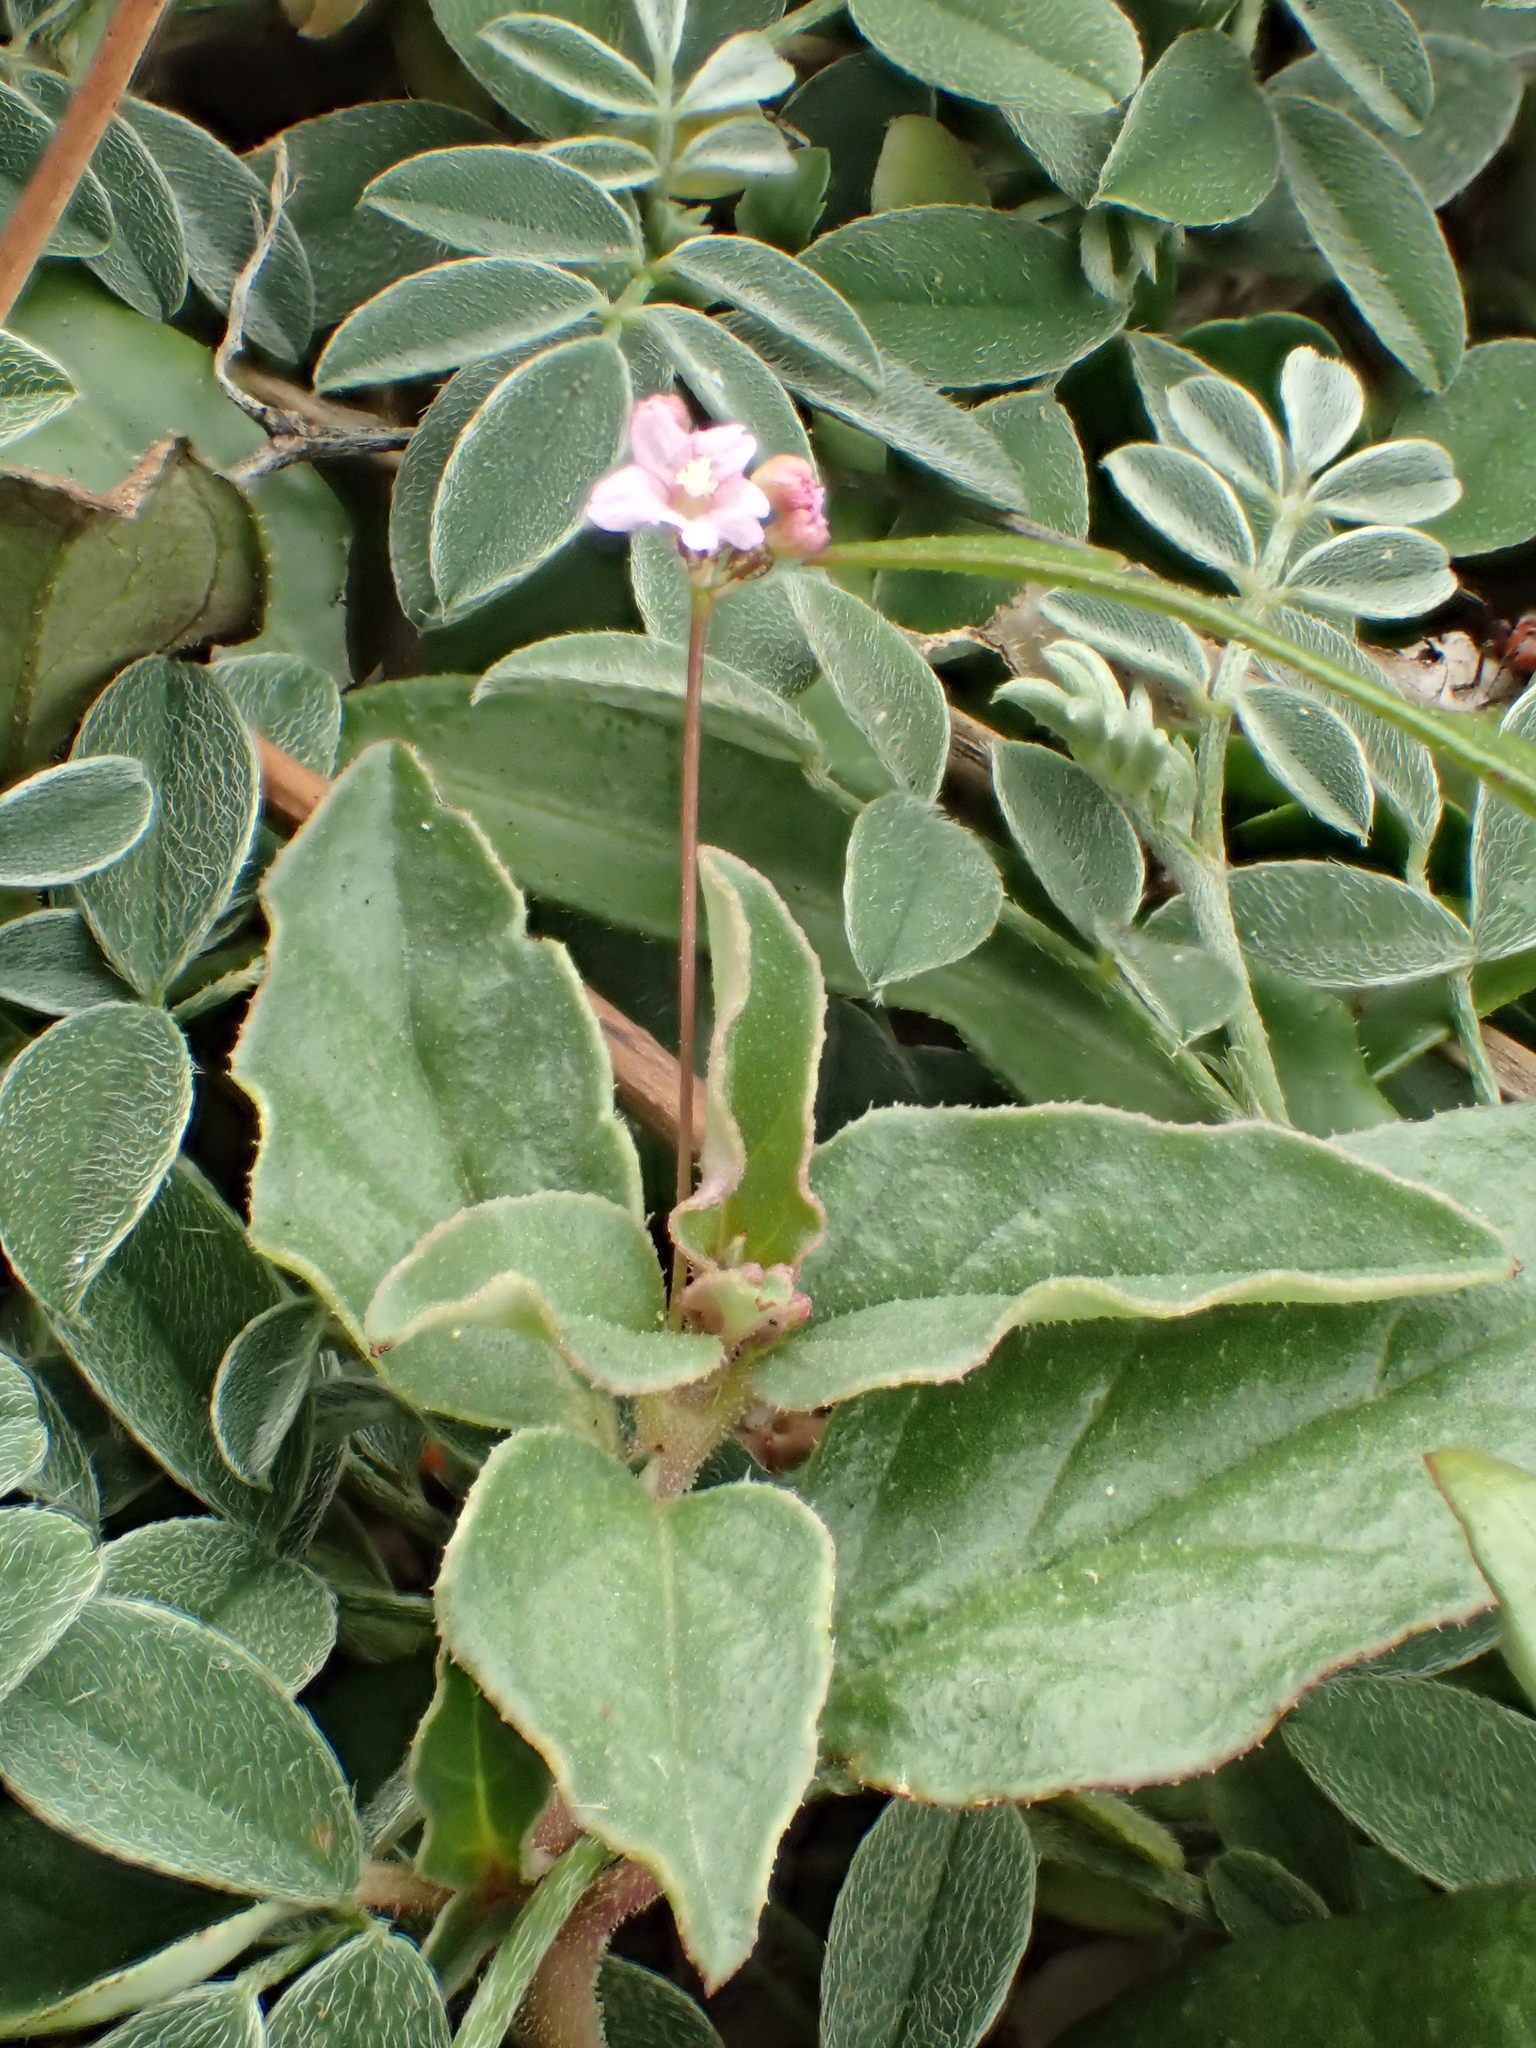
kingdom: Plantae
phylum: Tracheophyta
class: Magnoliopsida
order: Caryophyllales
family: Nyctaginaceae
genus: Boerhavia
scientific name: Boerhavia repens
